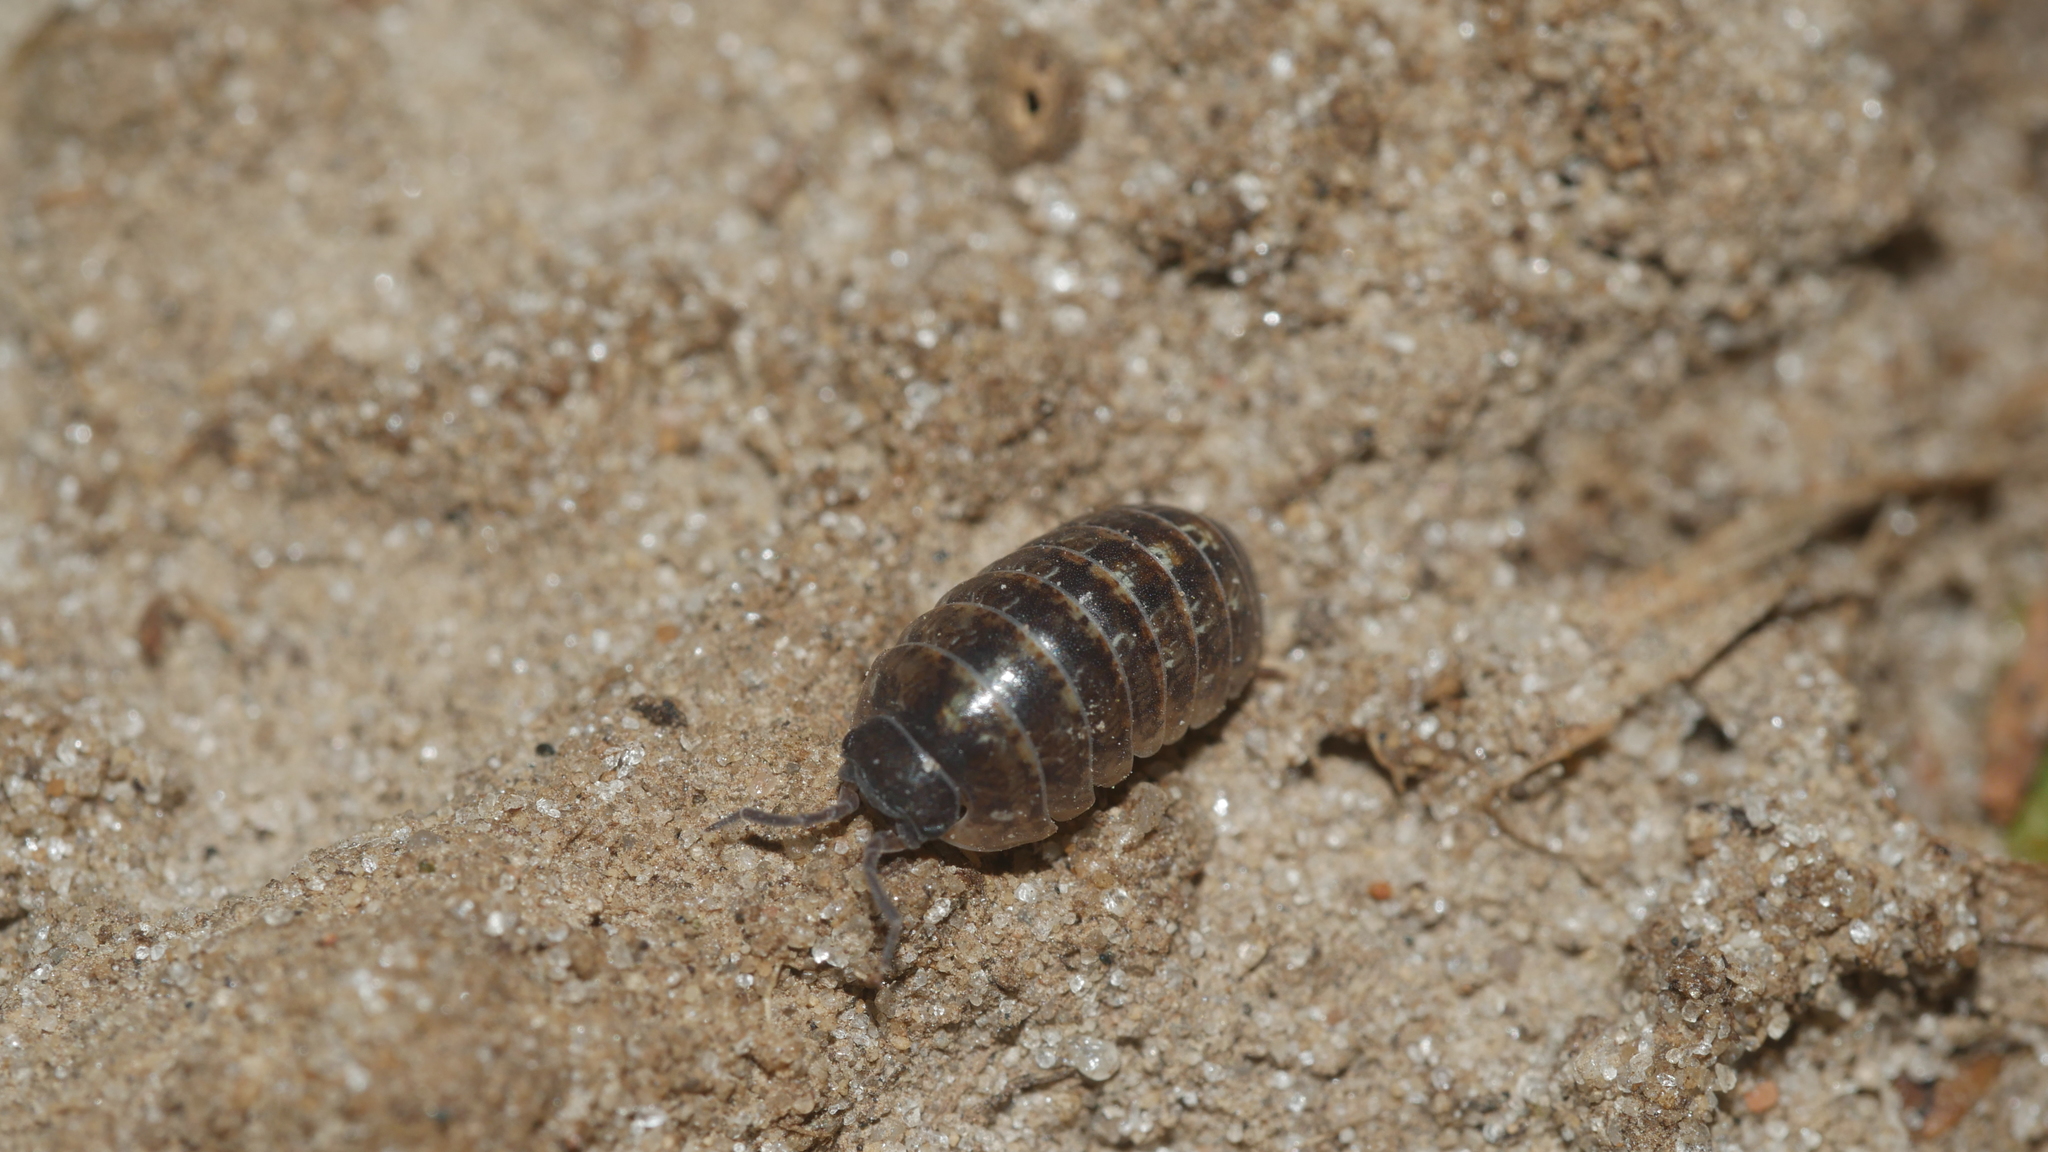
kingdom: Animalia
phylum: Arthropoda
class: Malacostraca
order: Isopoda
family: Armadillidiidae
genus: Armadillidium
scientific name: Armadillidium vulgare
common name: Common pill woodlouse
